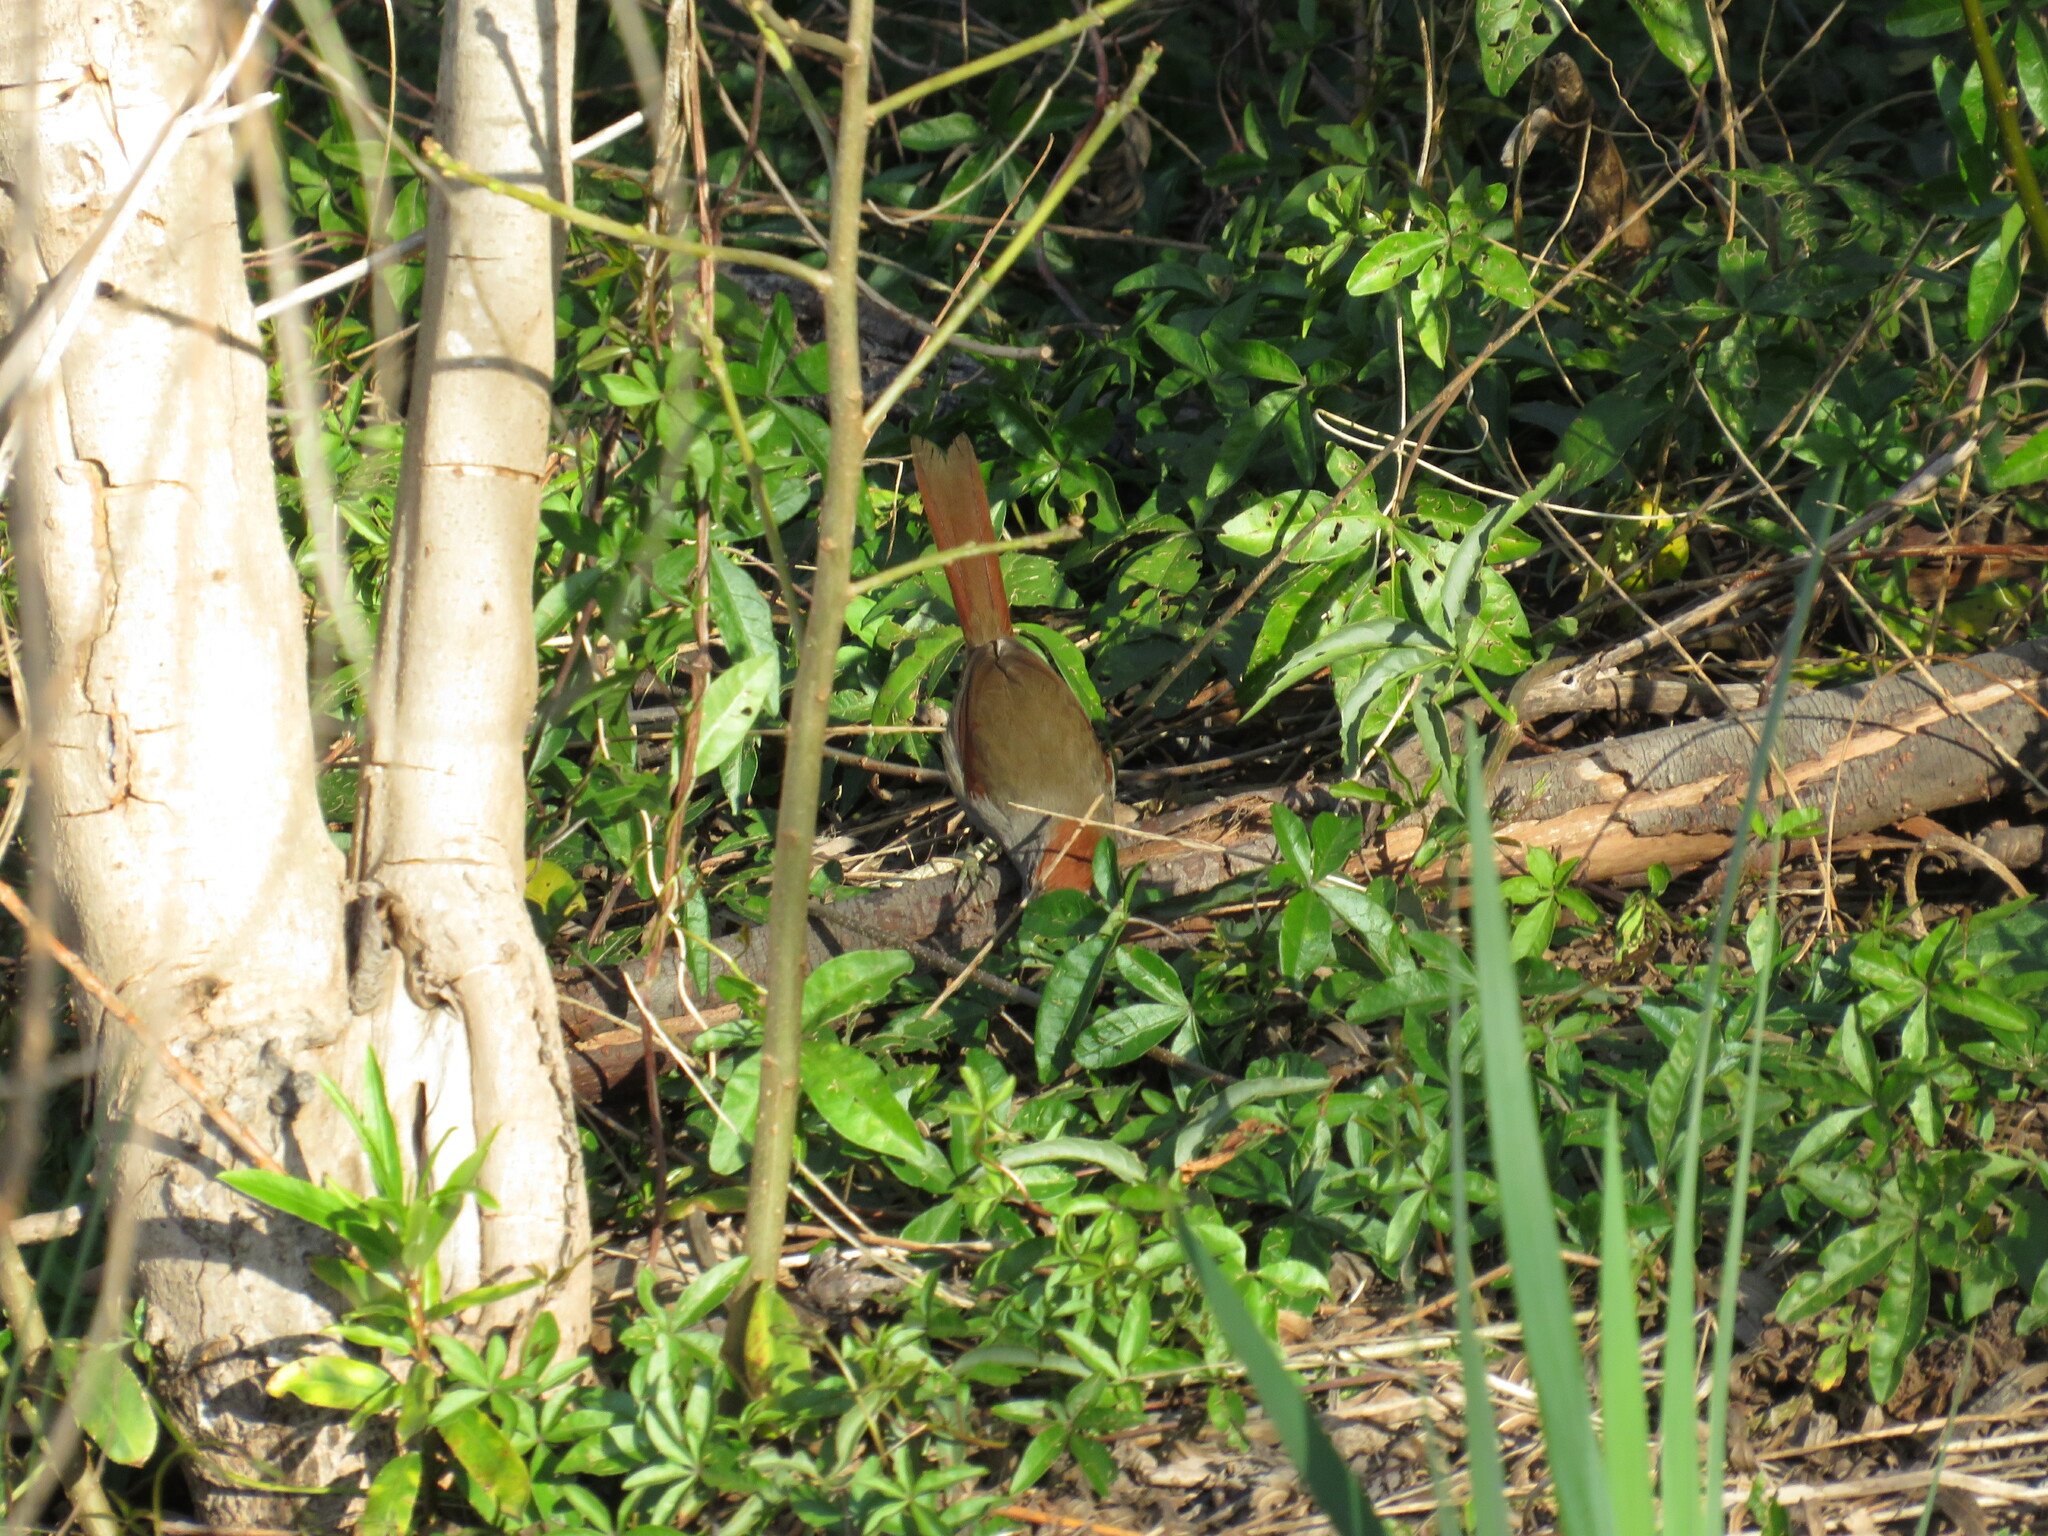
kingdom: Animalia
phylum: Chordata
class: Aves
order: Passeriformes
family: Furnariidae
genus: Synallaxis
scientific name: Synallaxis frontalis
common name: Sooty-fronted spinetail
